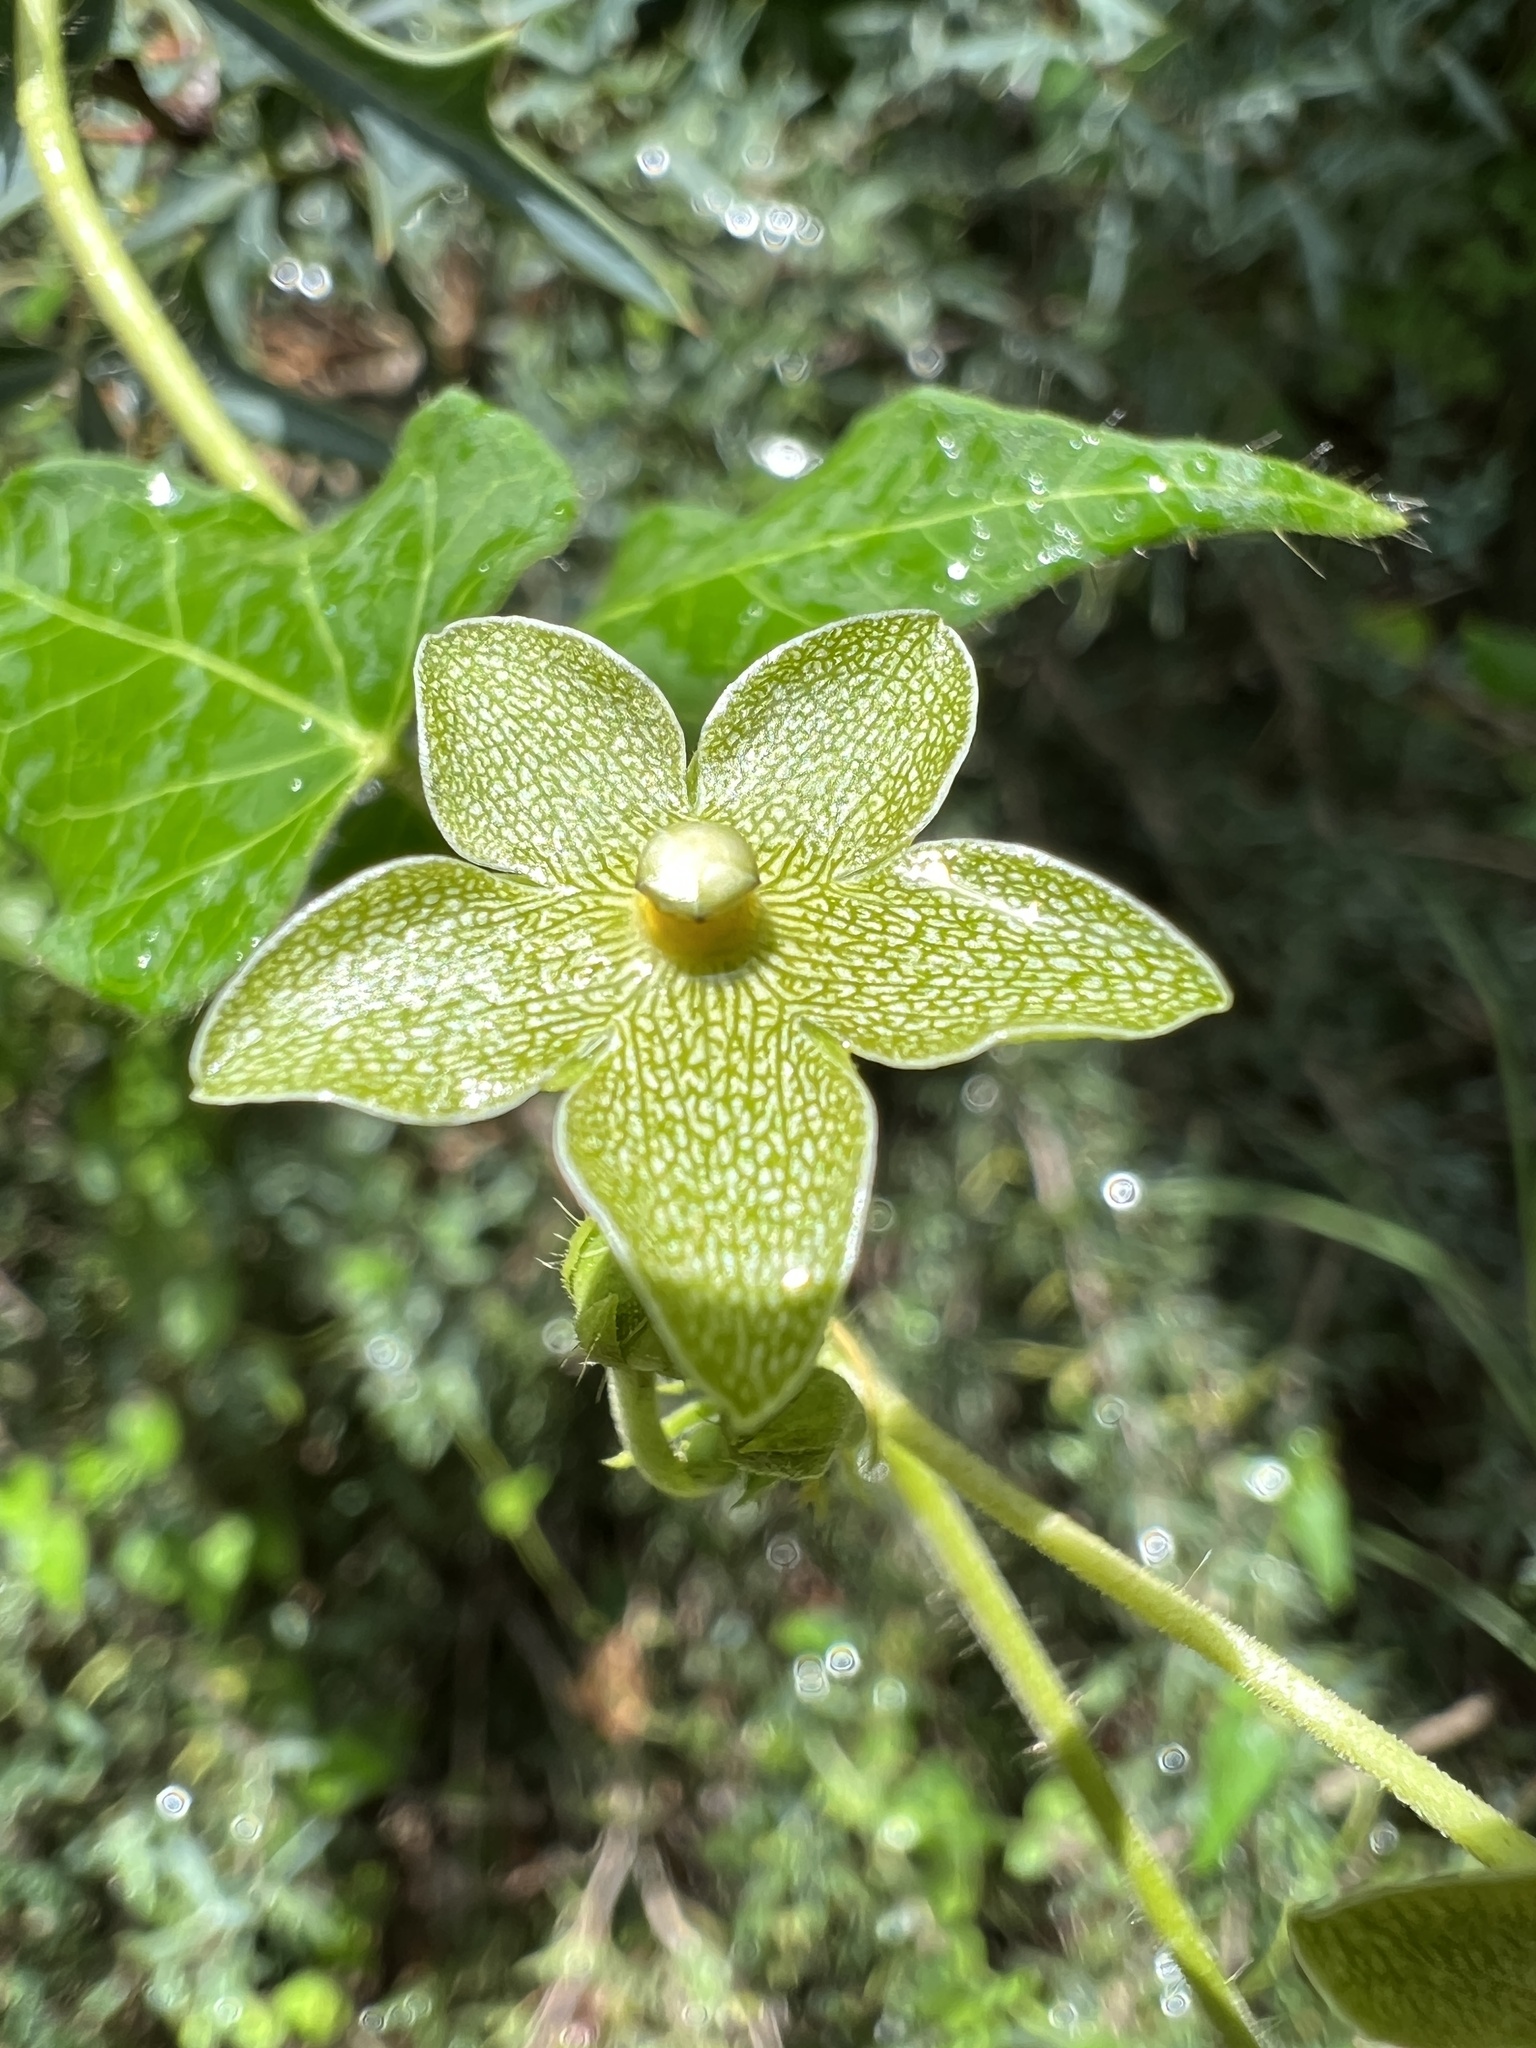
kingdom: Plantae
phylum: Tracheophyta
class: Magnoliopsida
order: Gentianales
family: Apocynaceae
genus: Dictyanthus
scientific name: Dictyanthus reticulatus
